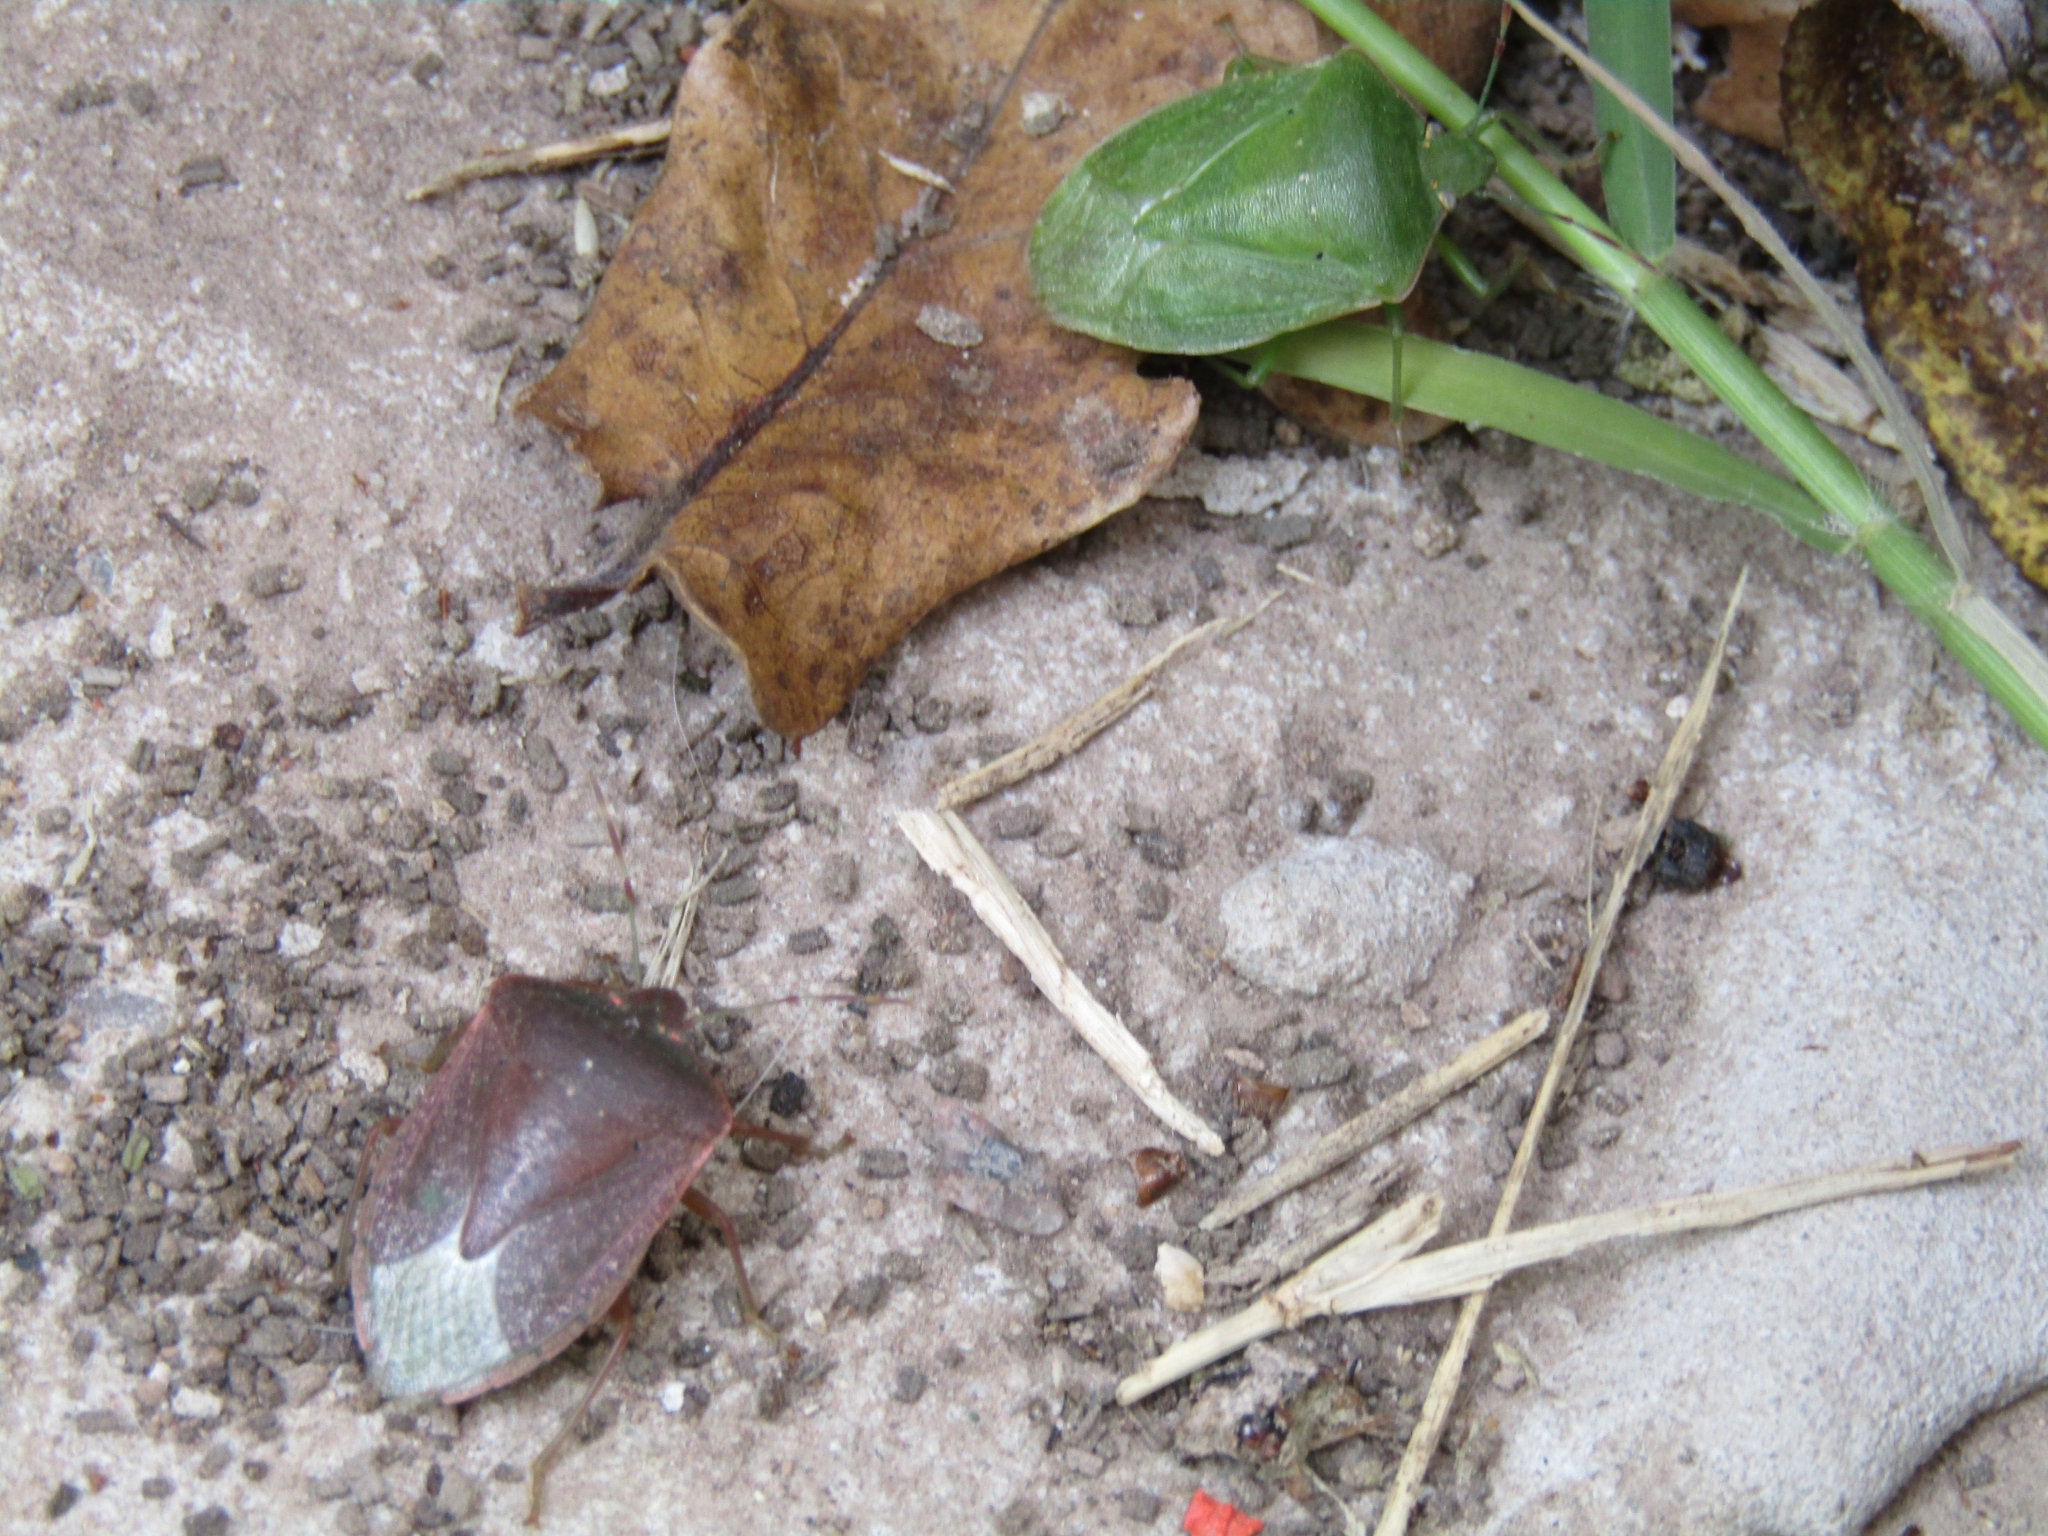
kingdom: Animalia
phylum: Arthropoda
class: Insecta
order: Hemiptera
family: Pentatomidae
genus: Nezara
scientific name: Nezara viridula
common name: Southern green stink bug
